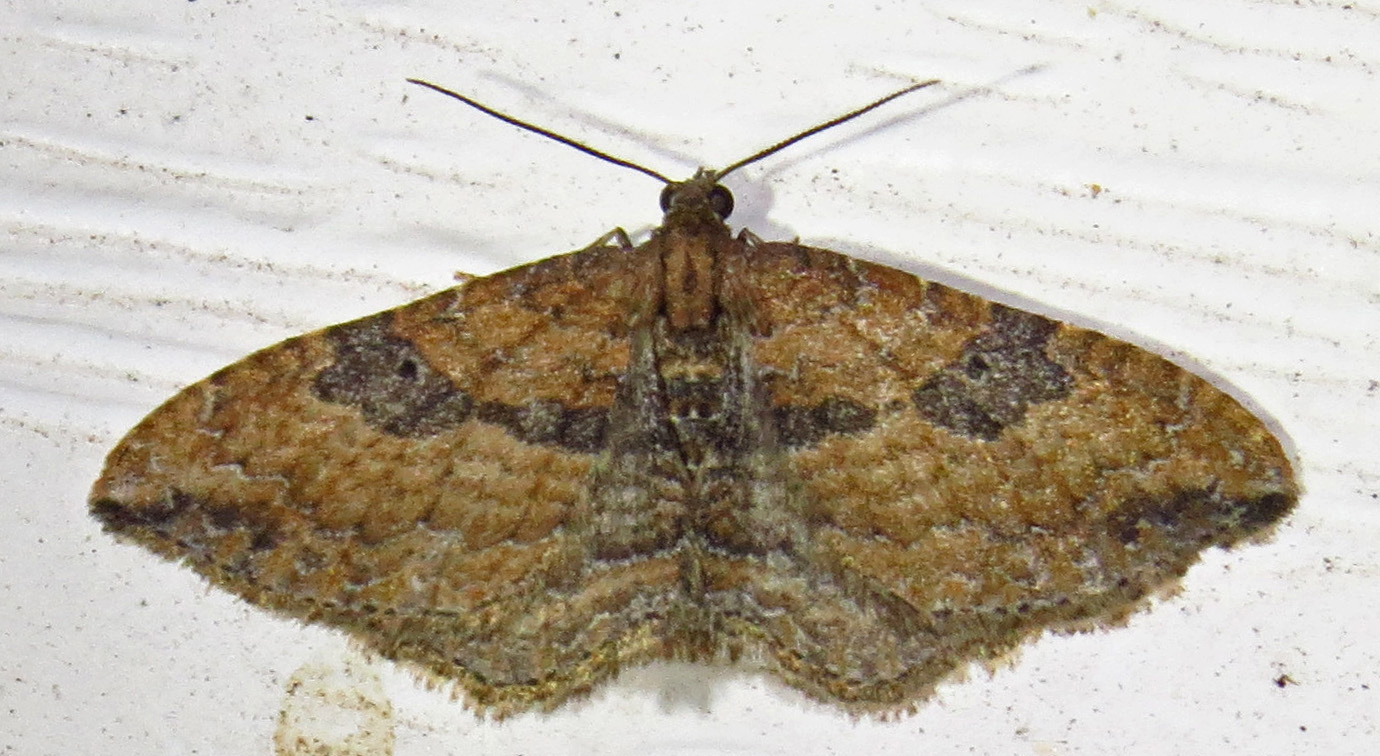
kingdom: Animalia
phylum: Arthropoda
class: Insecta
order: Lepidoptera
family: Geometridae
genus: Orthonama
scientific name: Orthonama obstipata
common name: The gem
